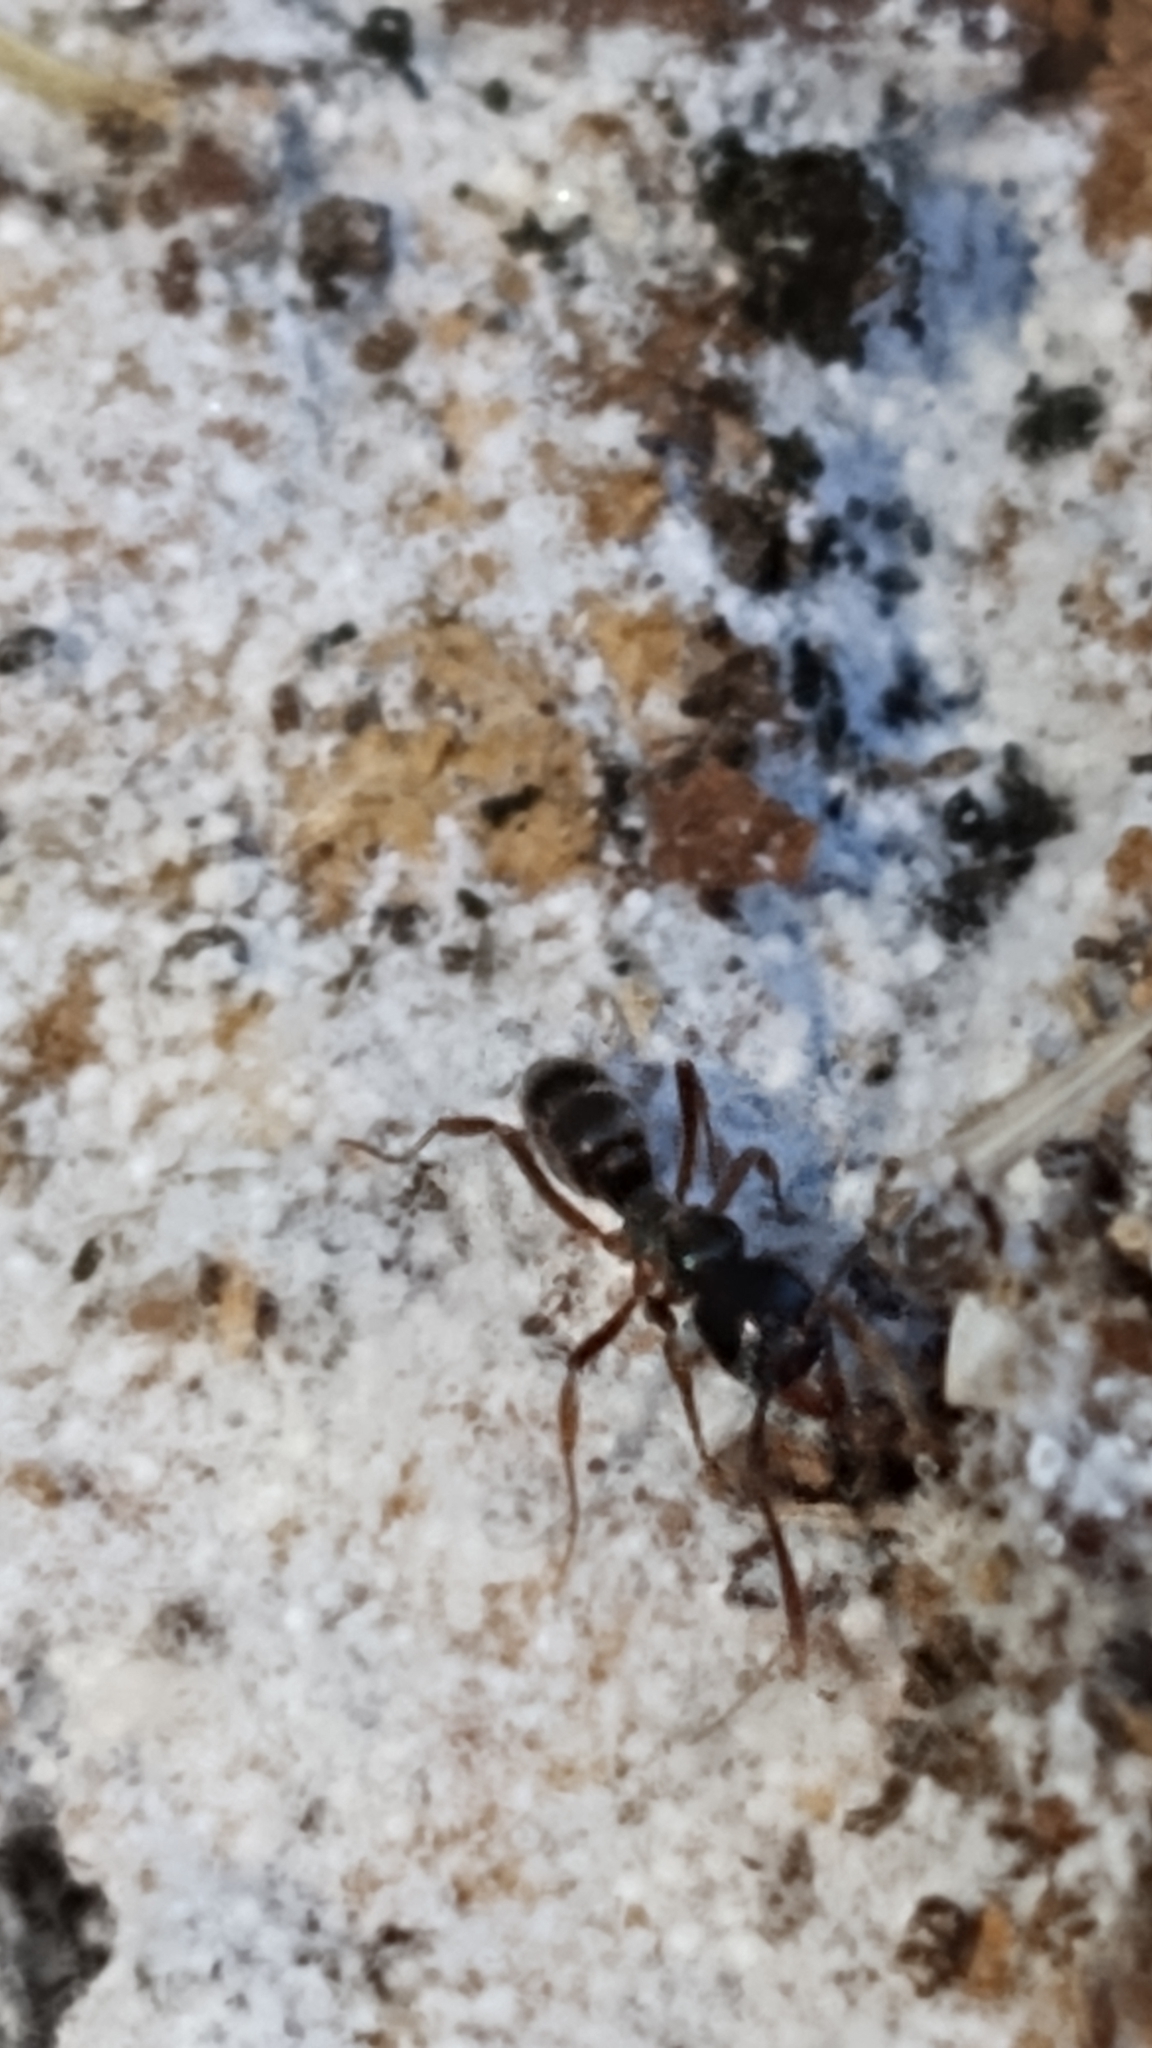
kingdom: Animalia
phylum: Arthropoda
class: Insecta
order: Hymenoptera
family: Formicidae
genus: Pachycondyla
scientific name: Pachycondyla chinensis
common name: Asian needle ant
